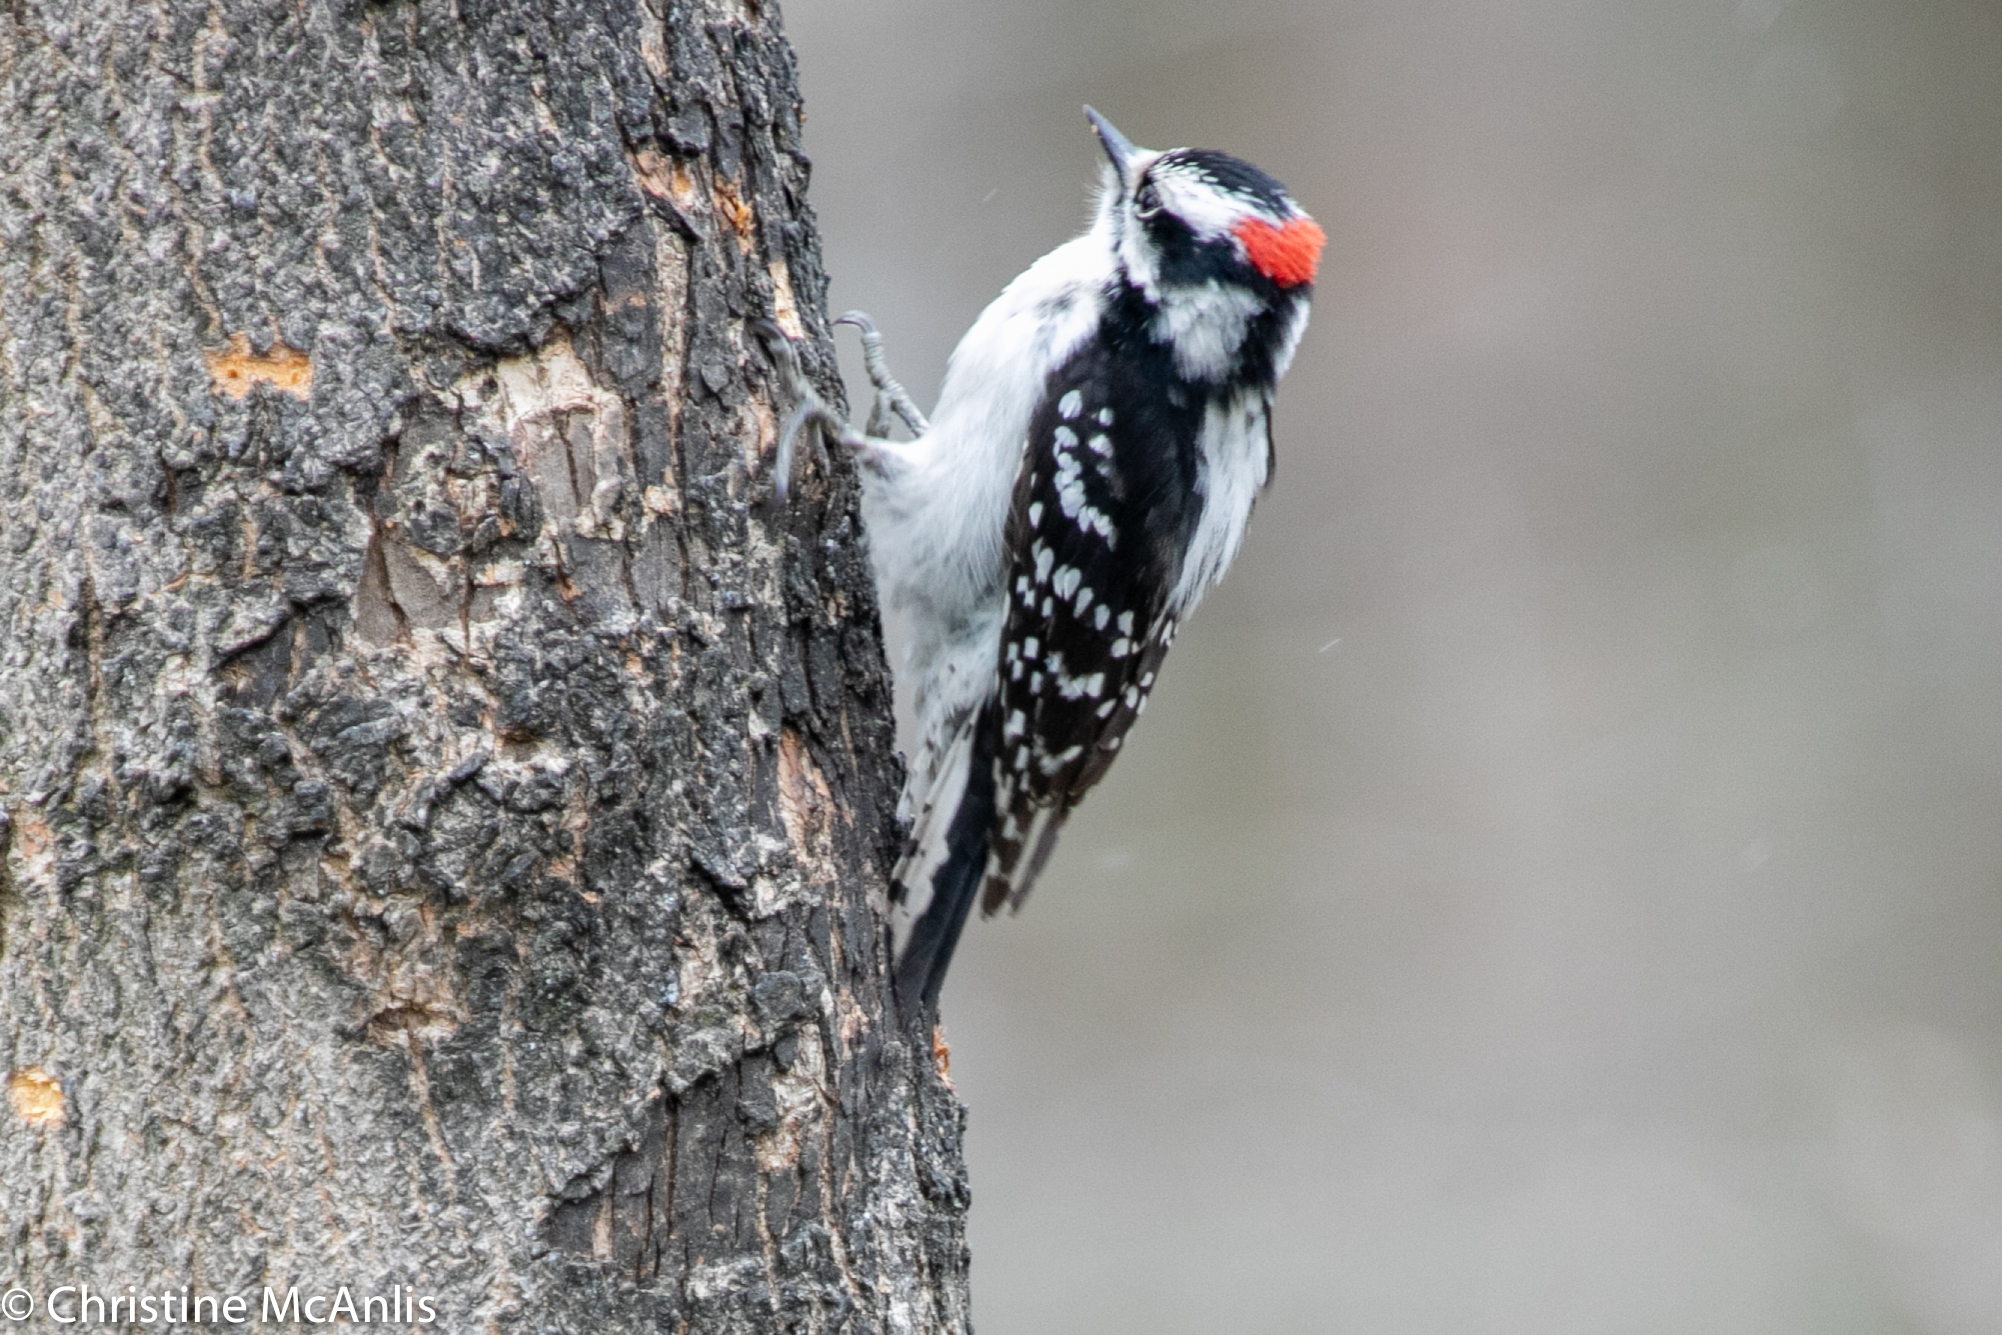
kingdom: Animalia
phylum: Chordata
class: Aves
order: Piciformes
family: Picidae
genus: Dryobates
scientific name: Dryobates pubescens
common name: Downy woodpecker
